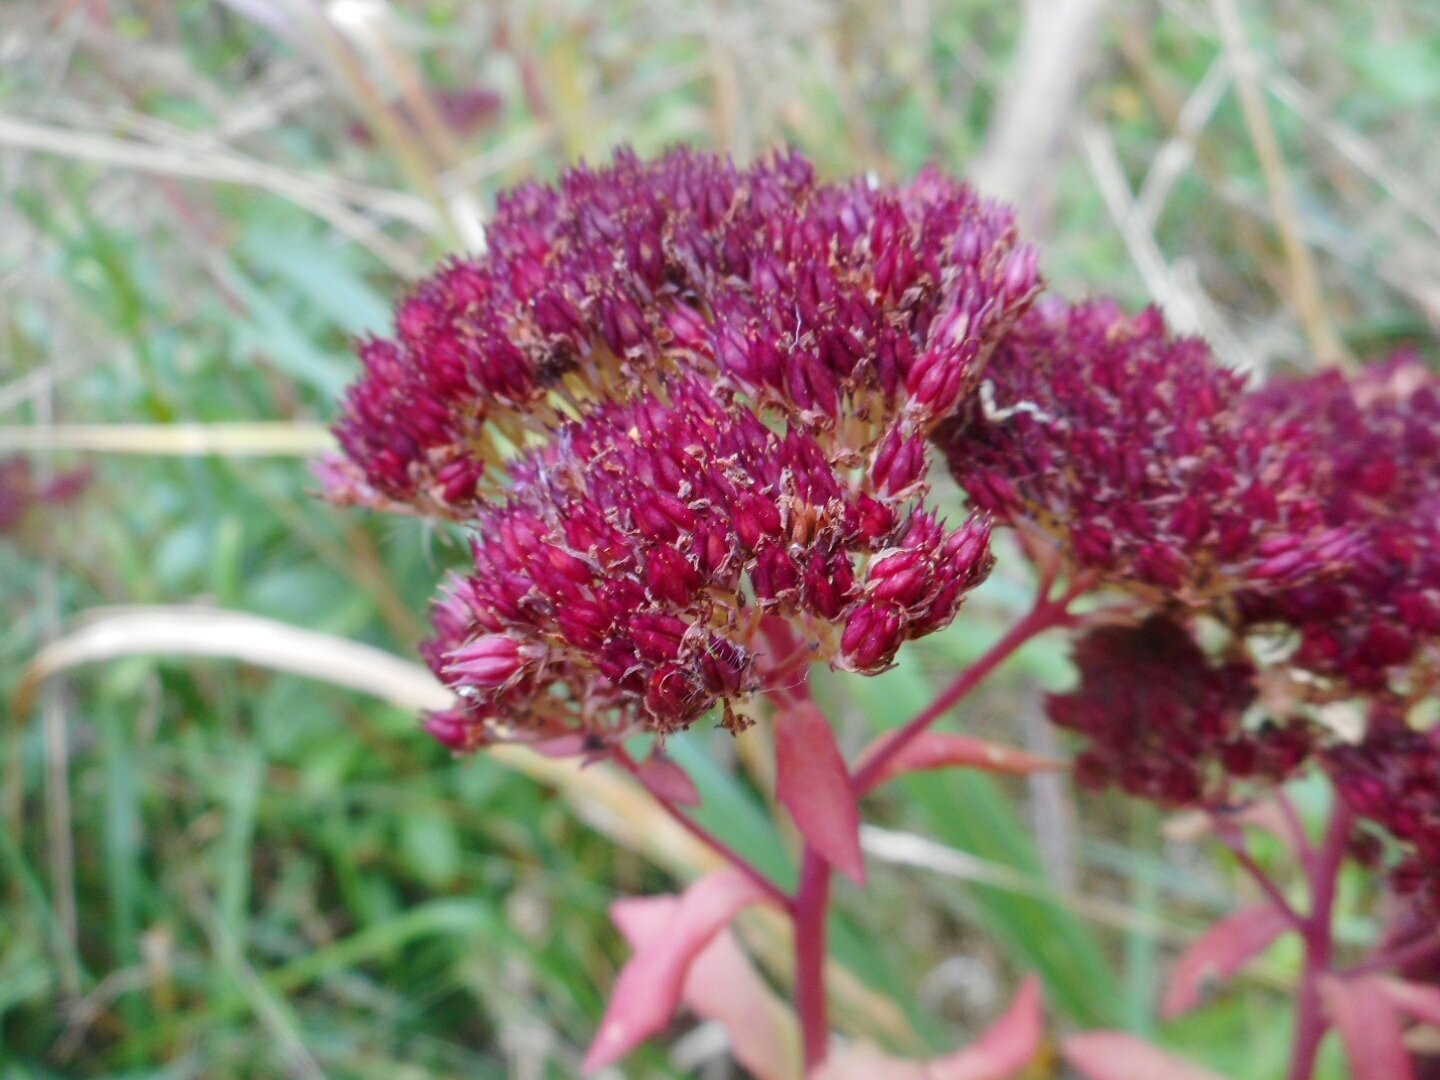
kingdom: Plantae
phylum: Tracheophyta
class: Magnoliopsida
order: Saxifragales
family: Crassulaceae
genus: Hylotelephium
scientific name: Hylotelephium telephium
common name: Live-forever
